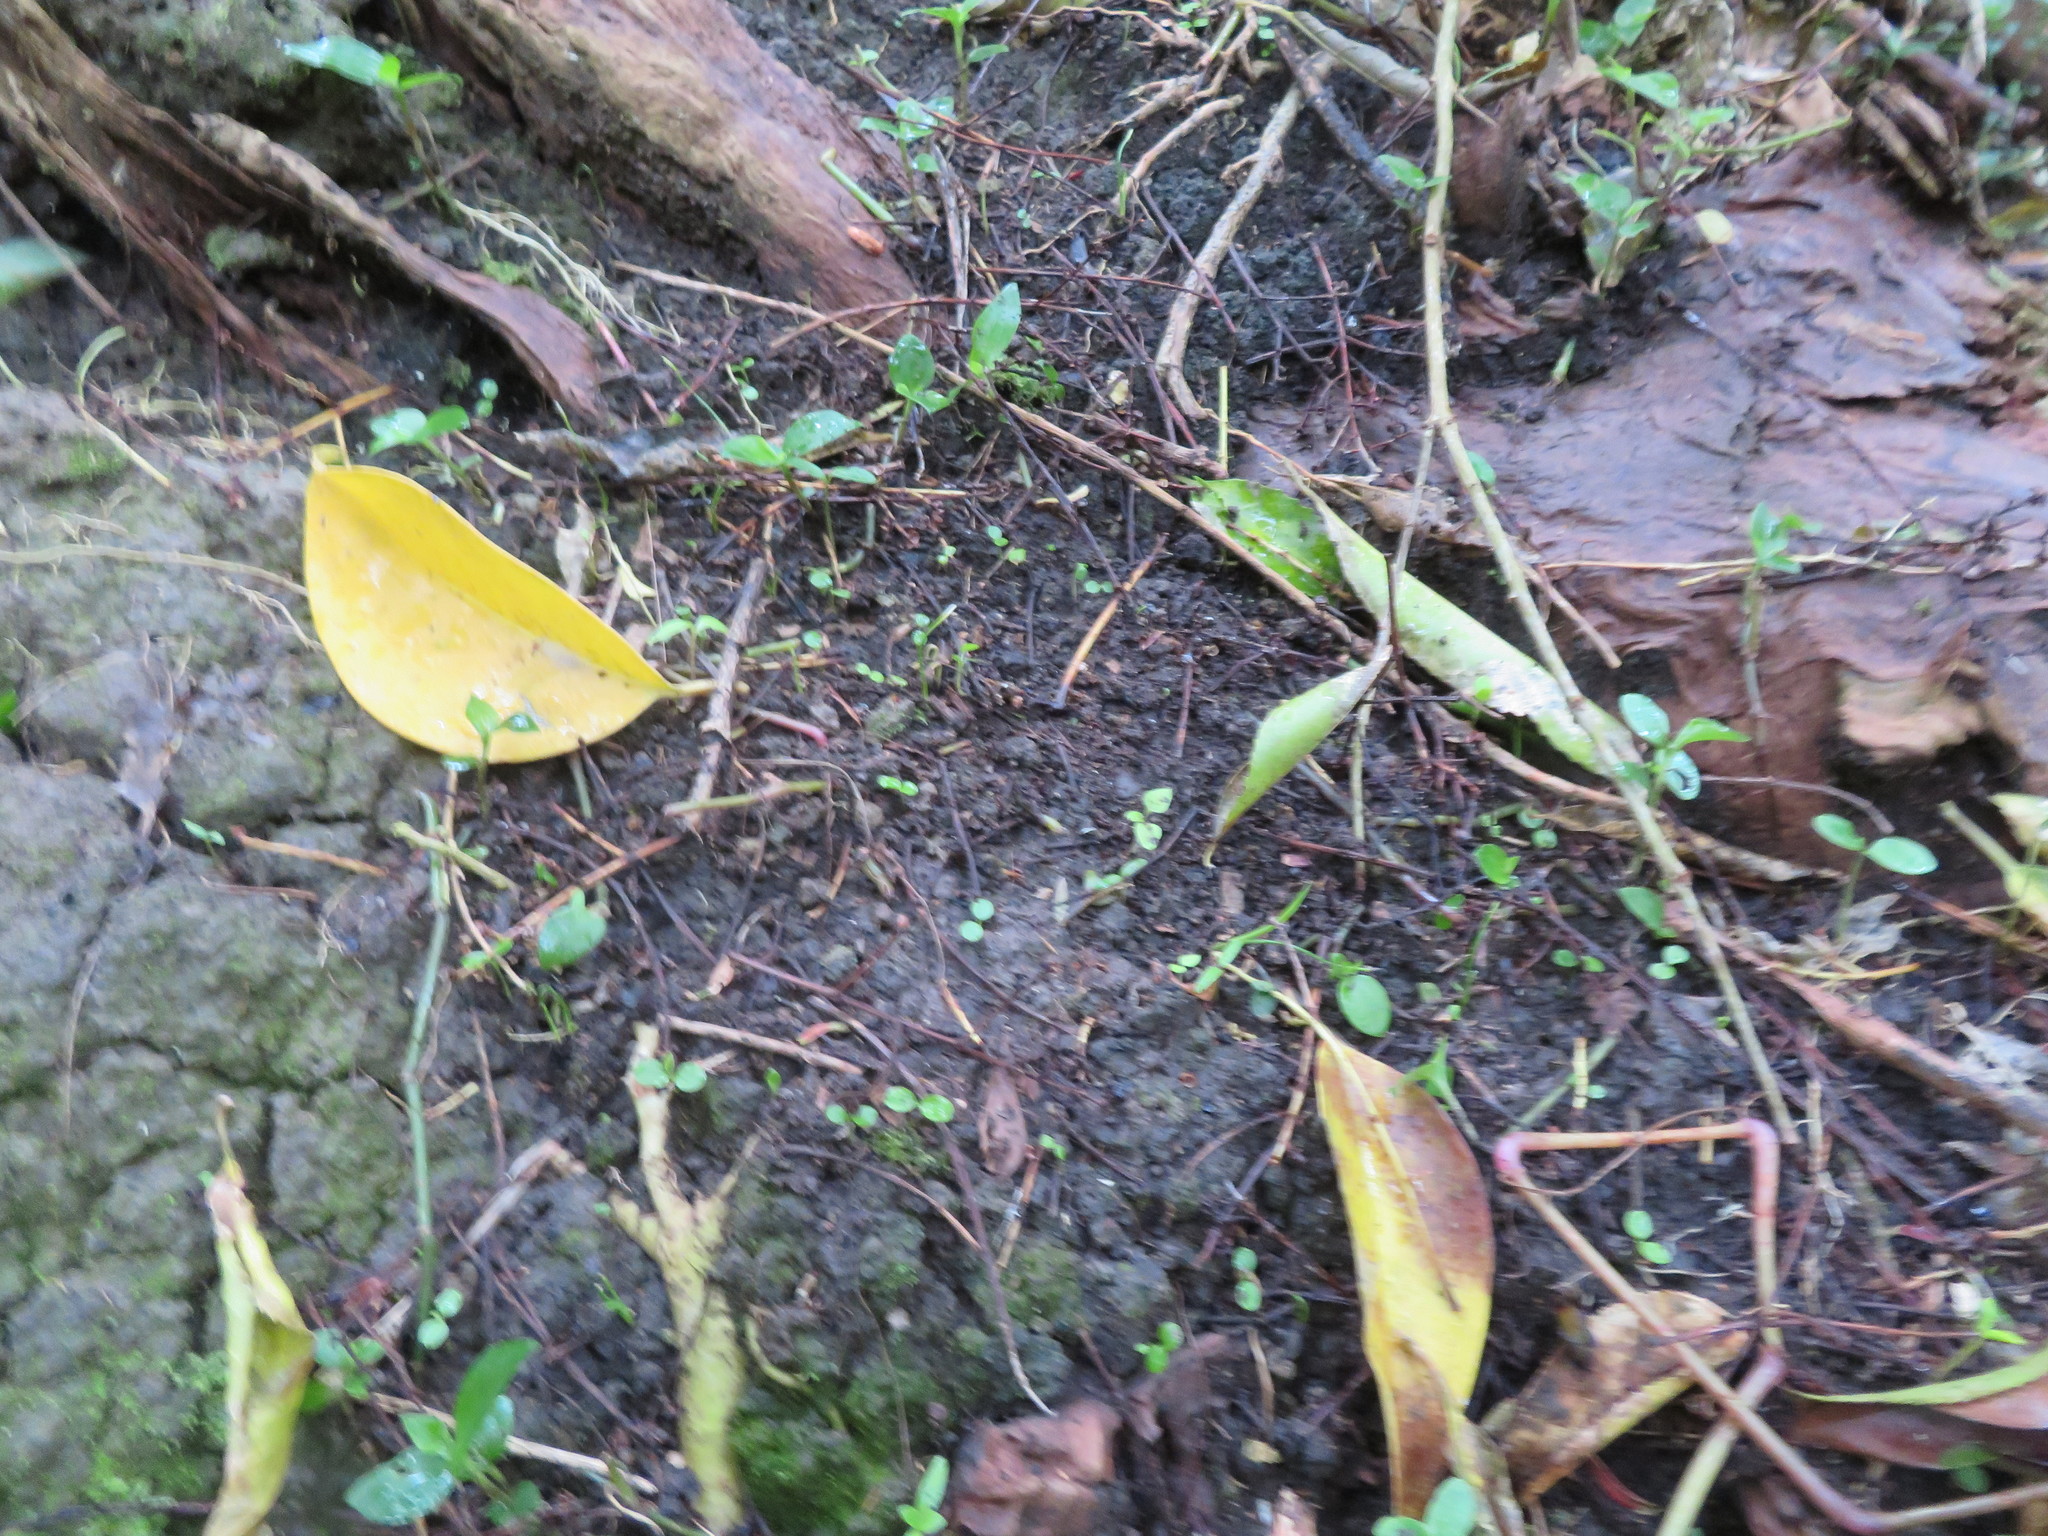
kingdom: Plantae
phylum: Tracheophyta
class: Magnoliopsida
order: Lamiales
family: Oleaceae
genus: Ligustrum
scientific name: Ligustrum lucidum
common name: Glossy privet
